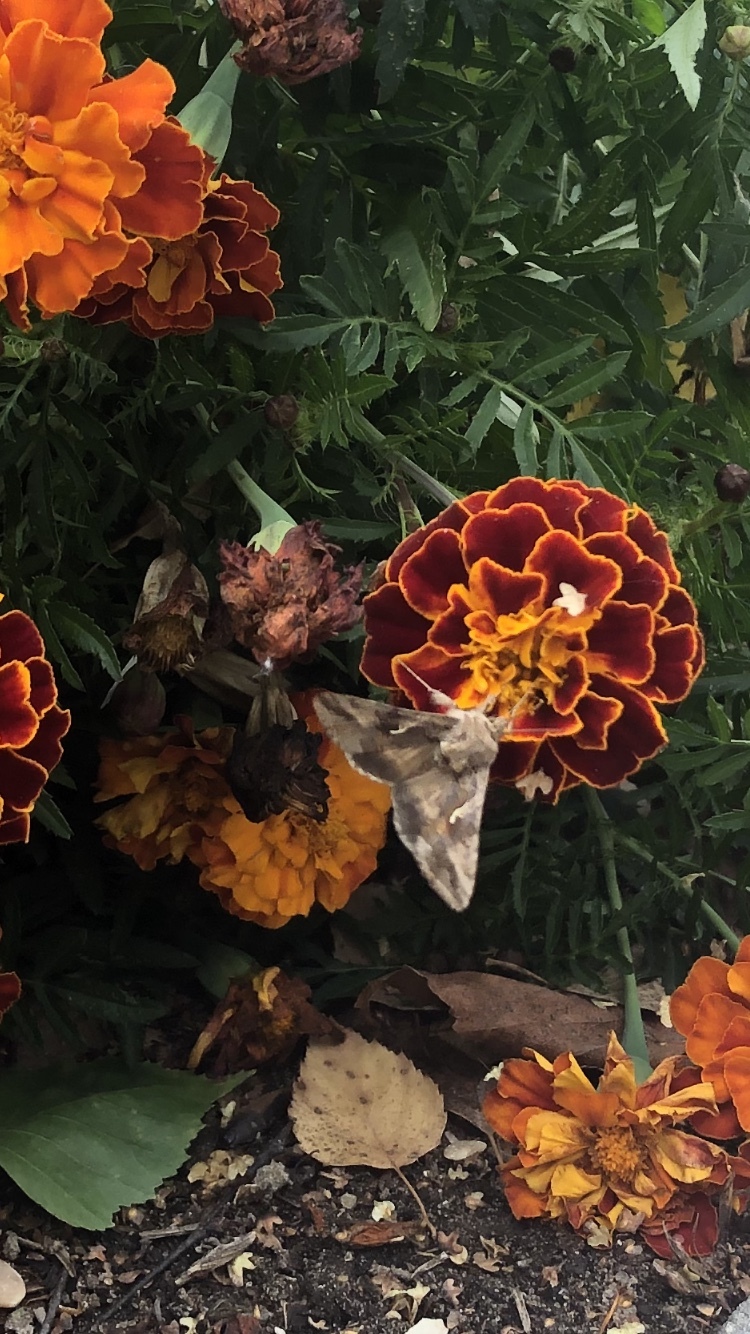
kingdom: Animalia
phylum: Arthropoda
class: Insecta
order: Lepidoptera
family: Noctuidae
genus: Autographa
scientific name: Autographa gamma
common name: Silver y
